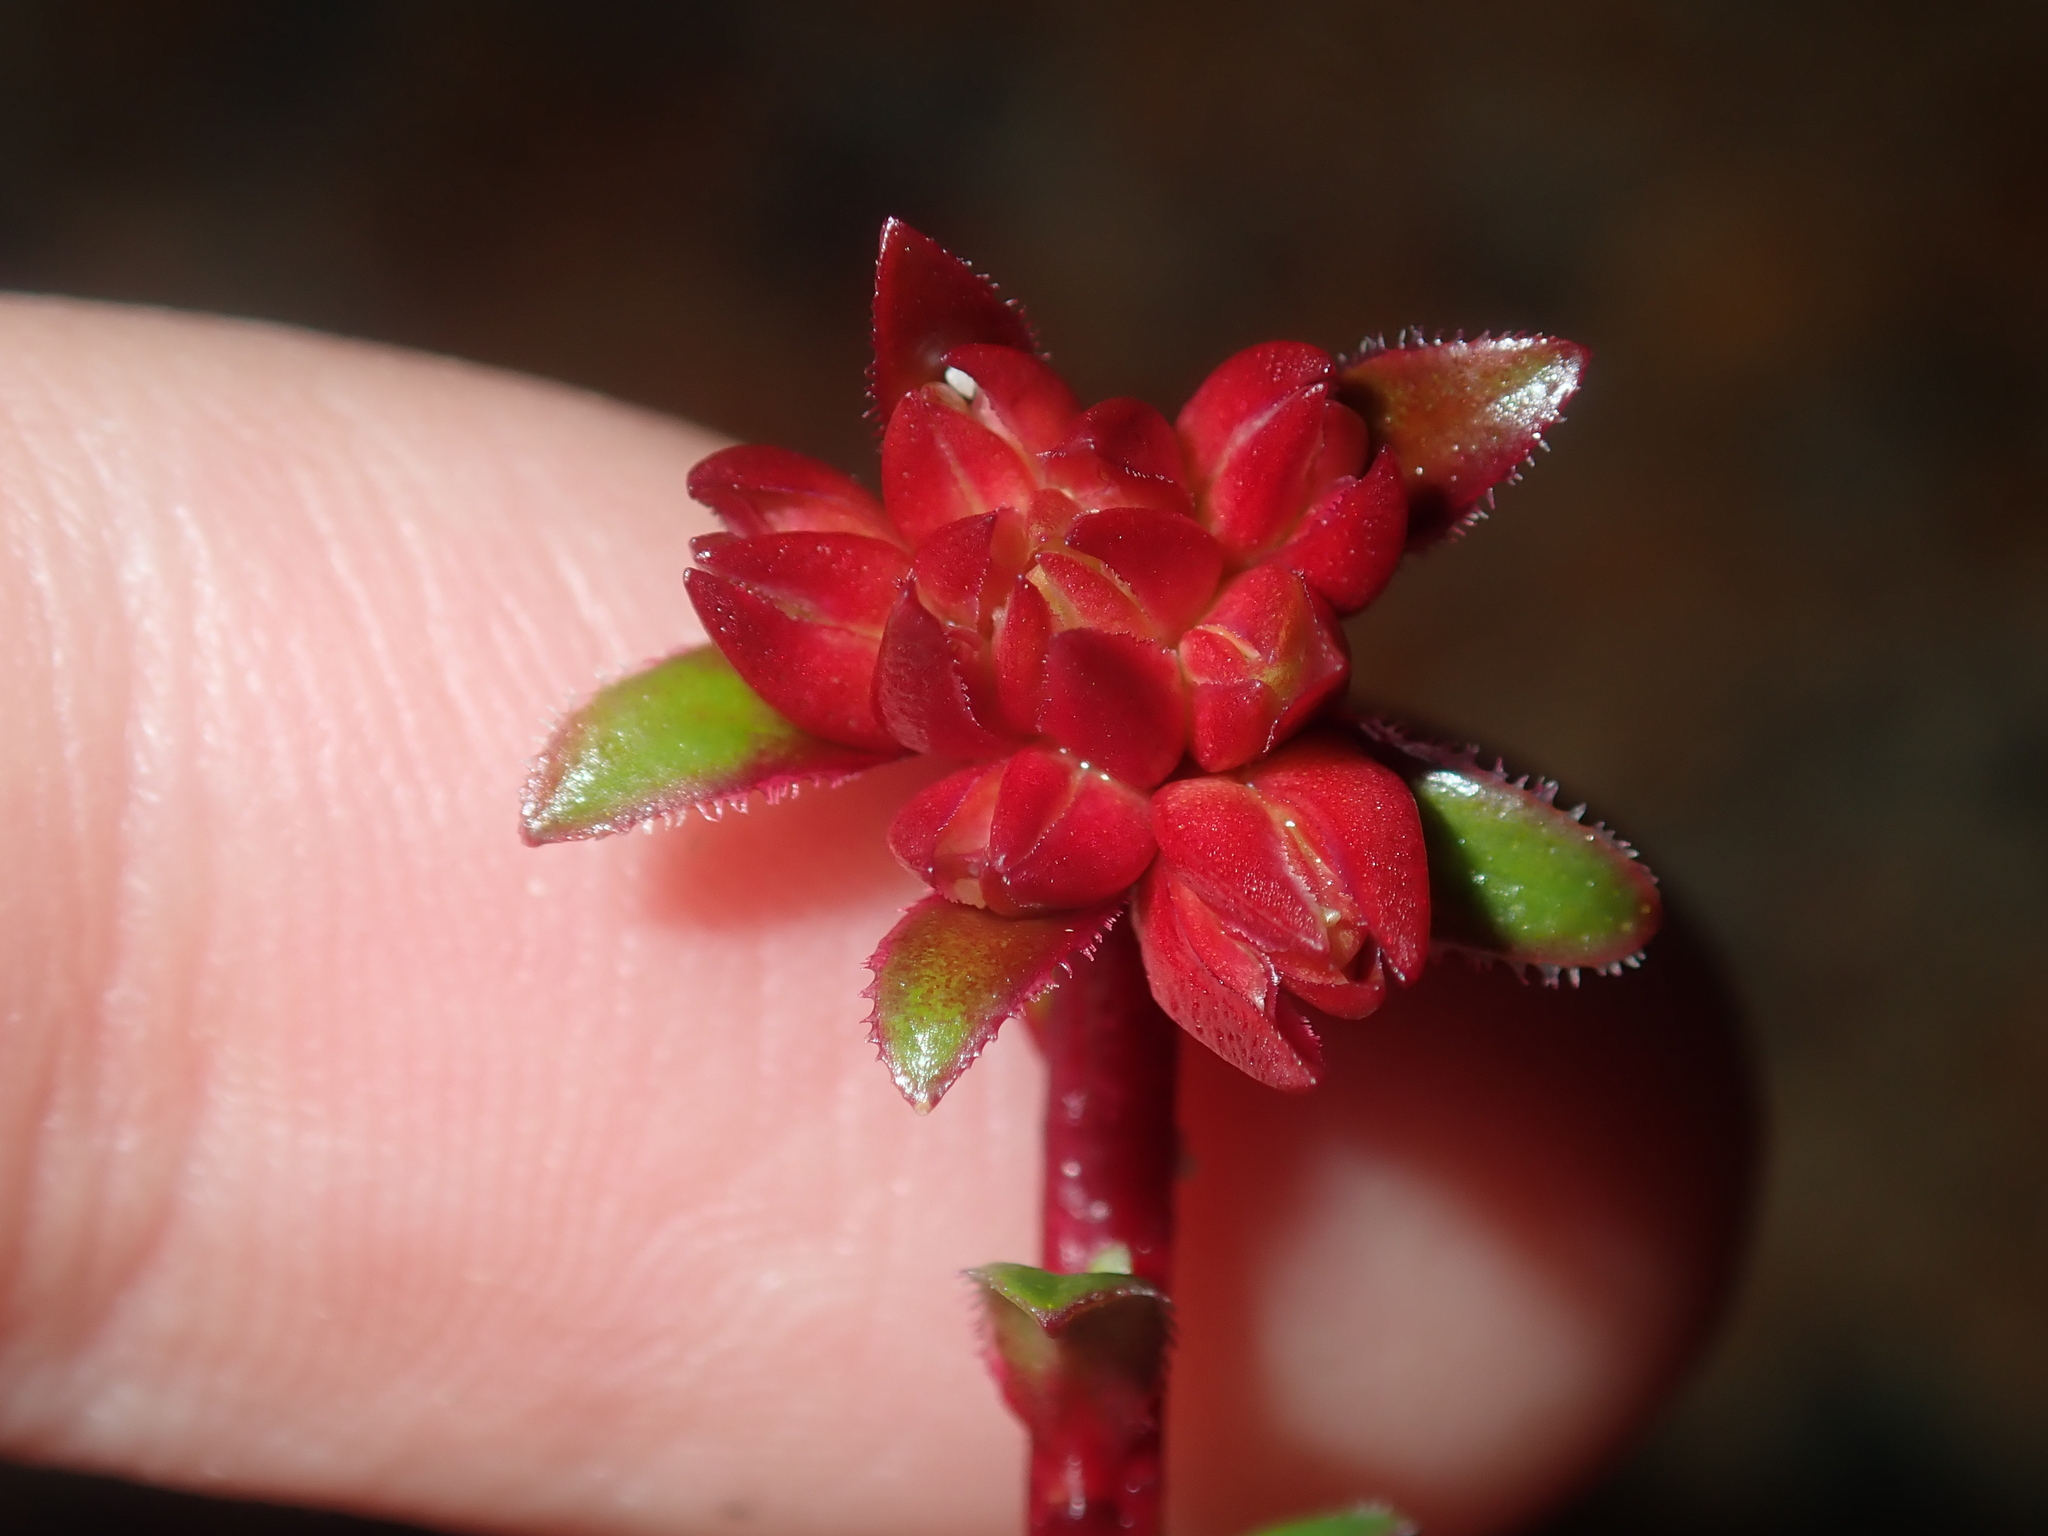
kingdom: Plantae
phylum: Tracheophyta
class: Magnoliopsida
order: Myrtales
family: Myrtaceae
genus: Darwinia
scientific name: Darwinia sanguinea
